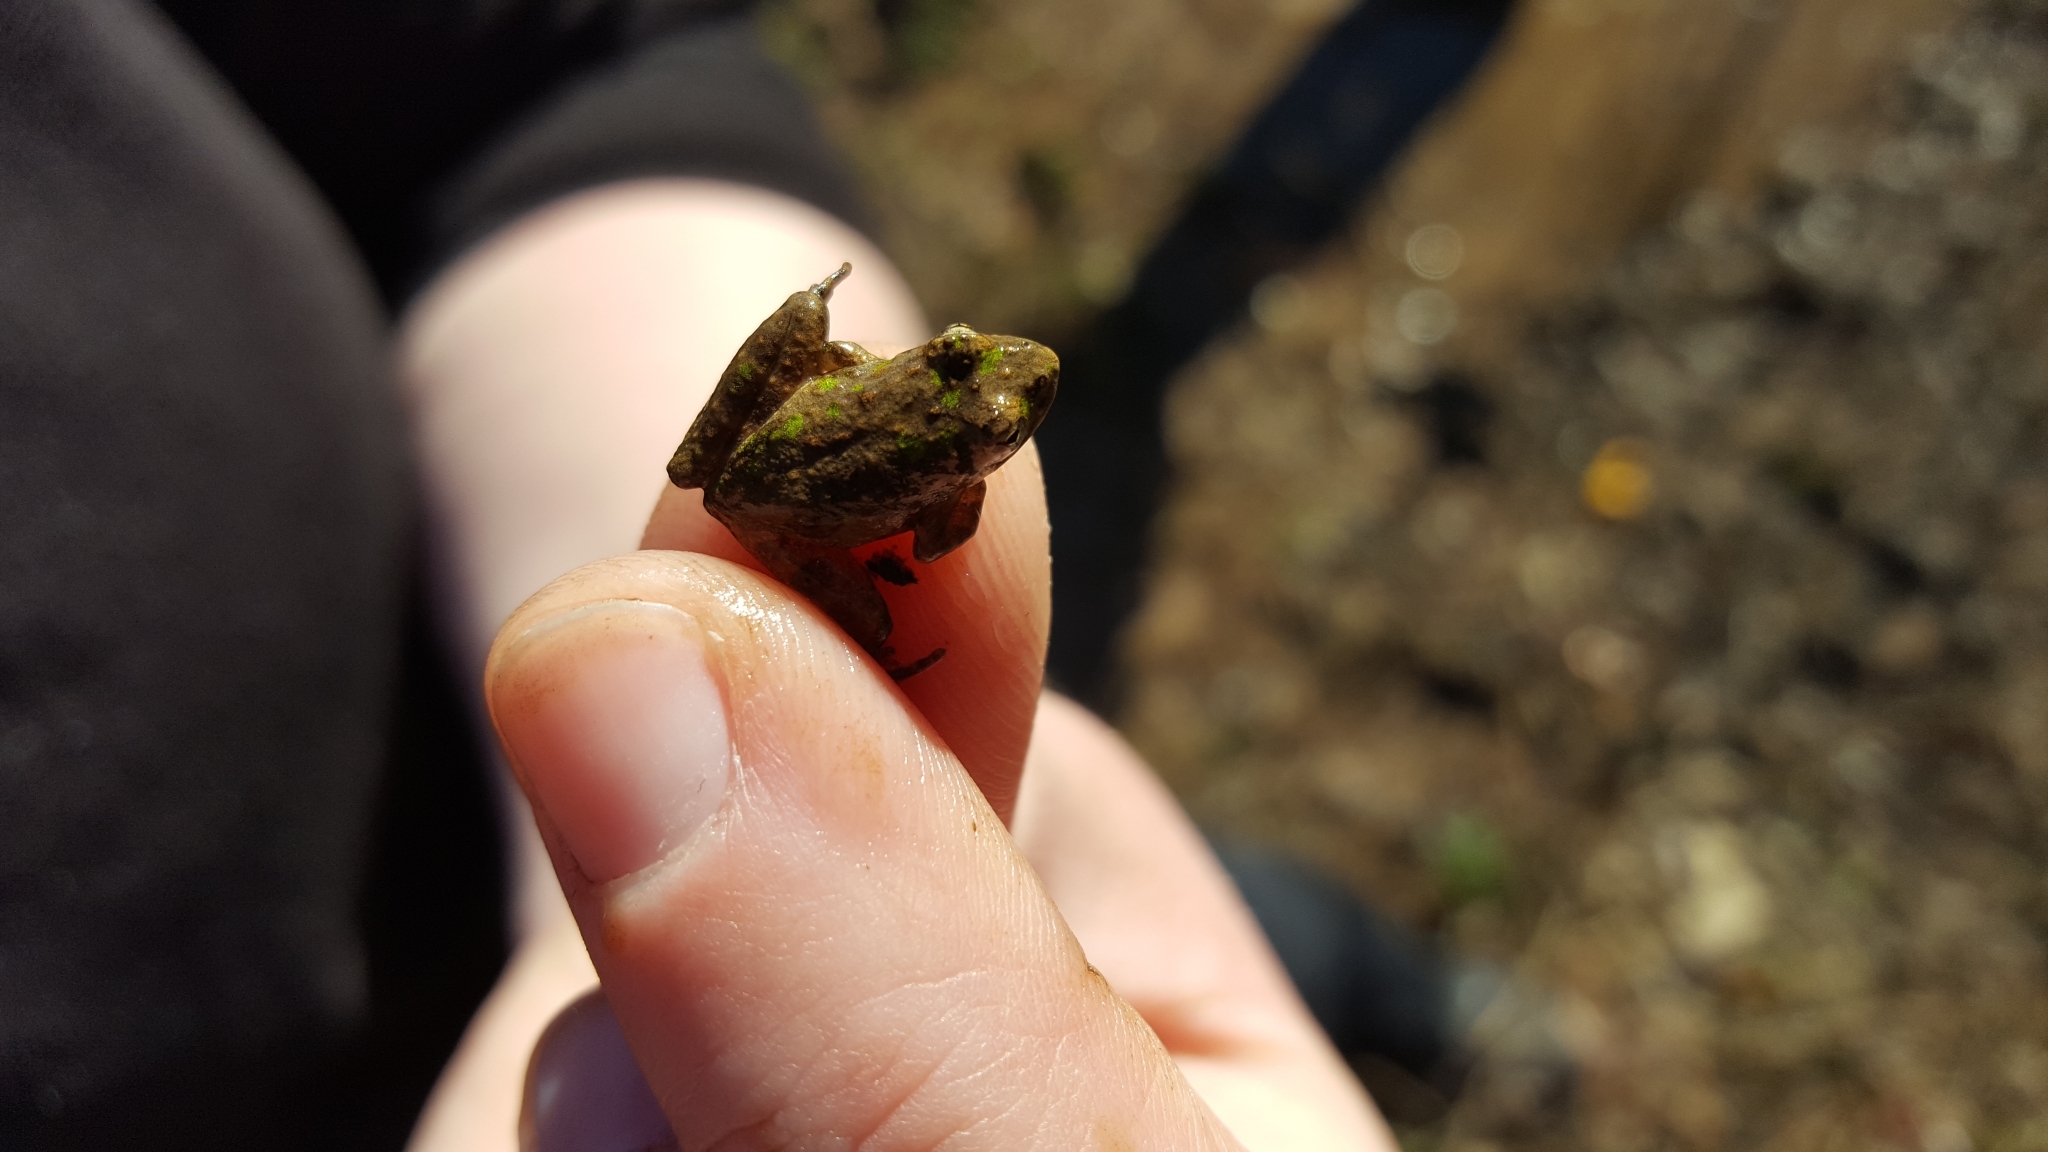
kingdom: Animalia
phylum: Chordata
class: Amphibia
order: Anura
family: Hylidae
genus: Acris
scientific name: Acris blanchardi
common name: Blanchard's cricket frog
